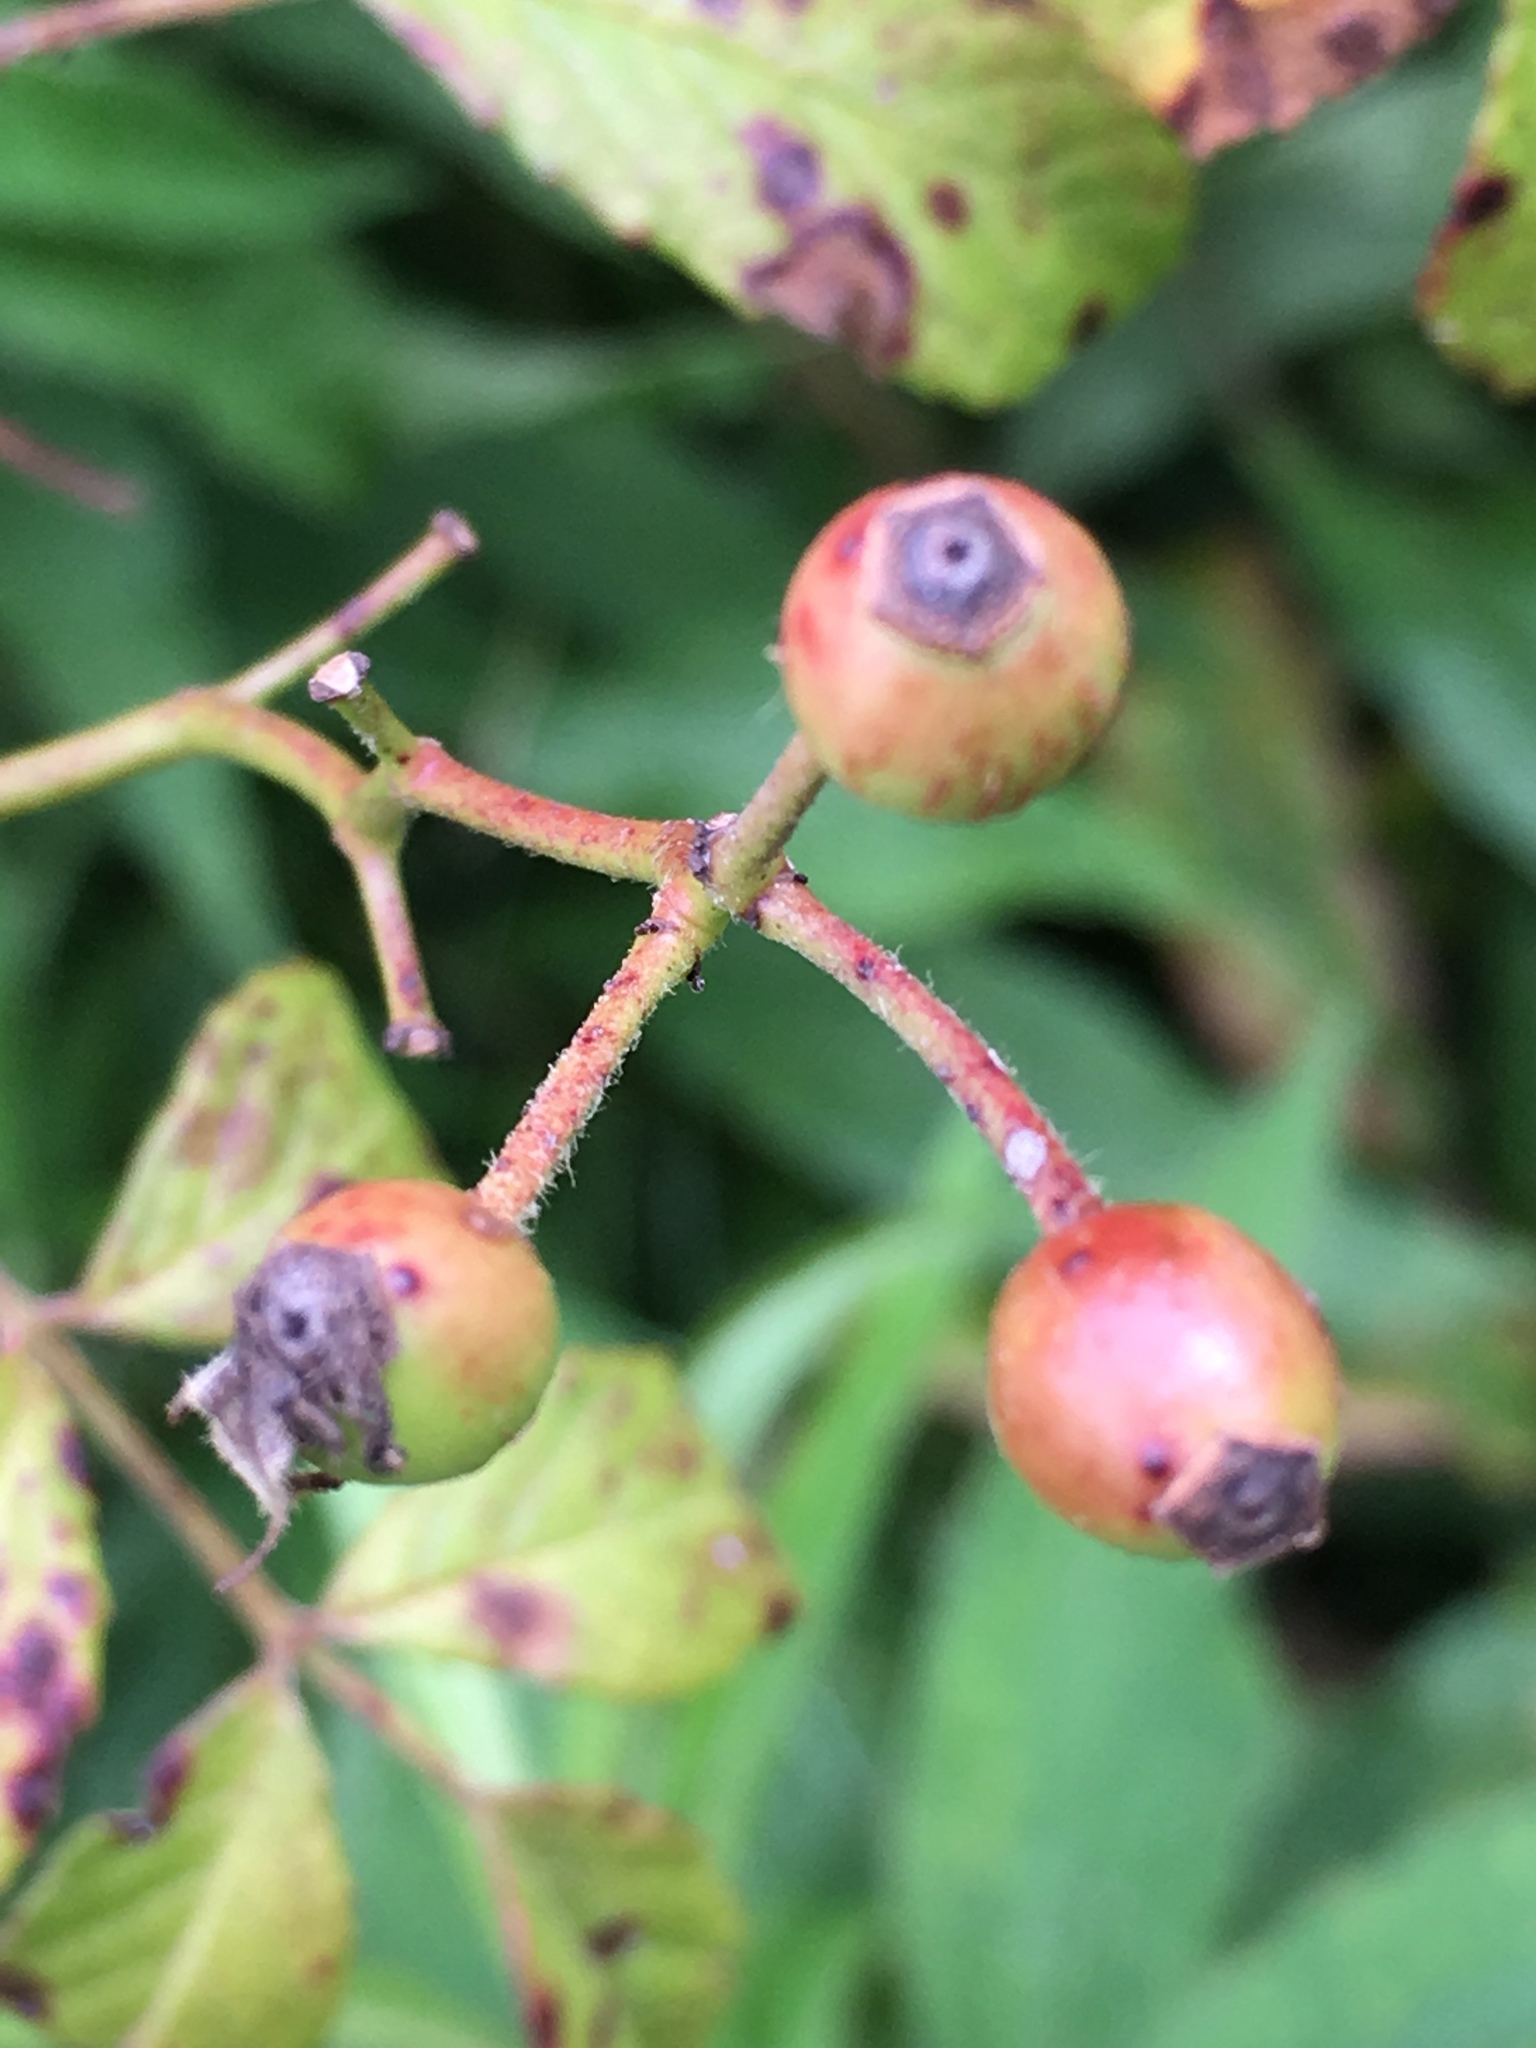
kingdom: Plantae
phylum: Tracheophyta
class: Magnoliopsida
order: Rosales
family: Rosaceae
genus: Rosa
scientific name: Rosa multiflora
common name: Multiflora rose
